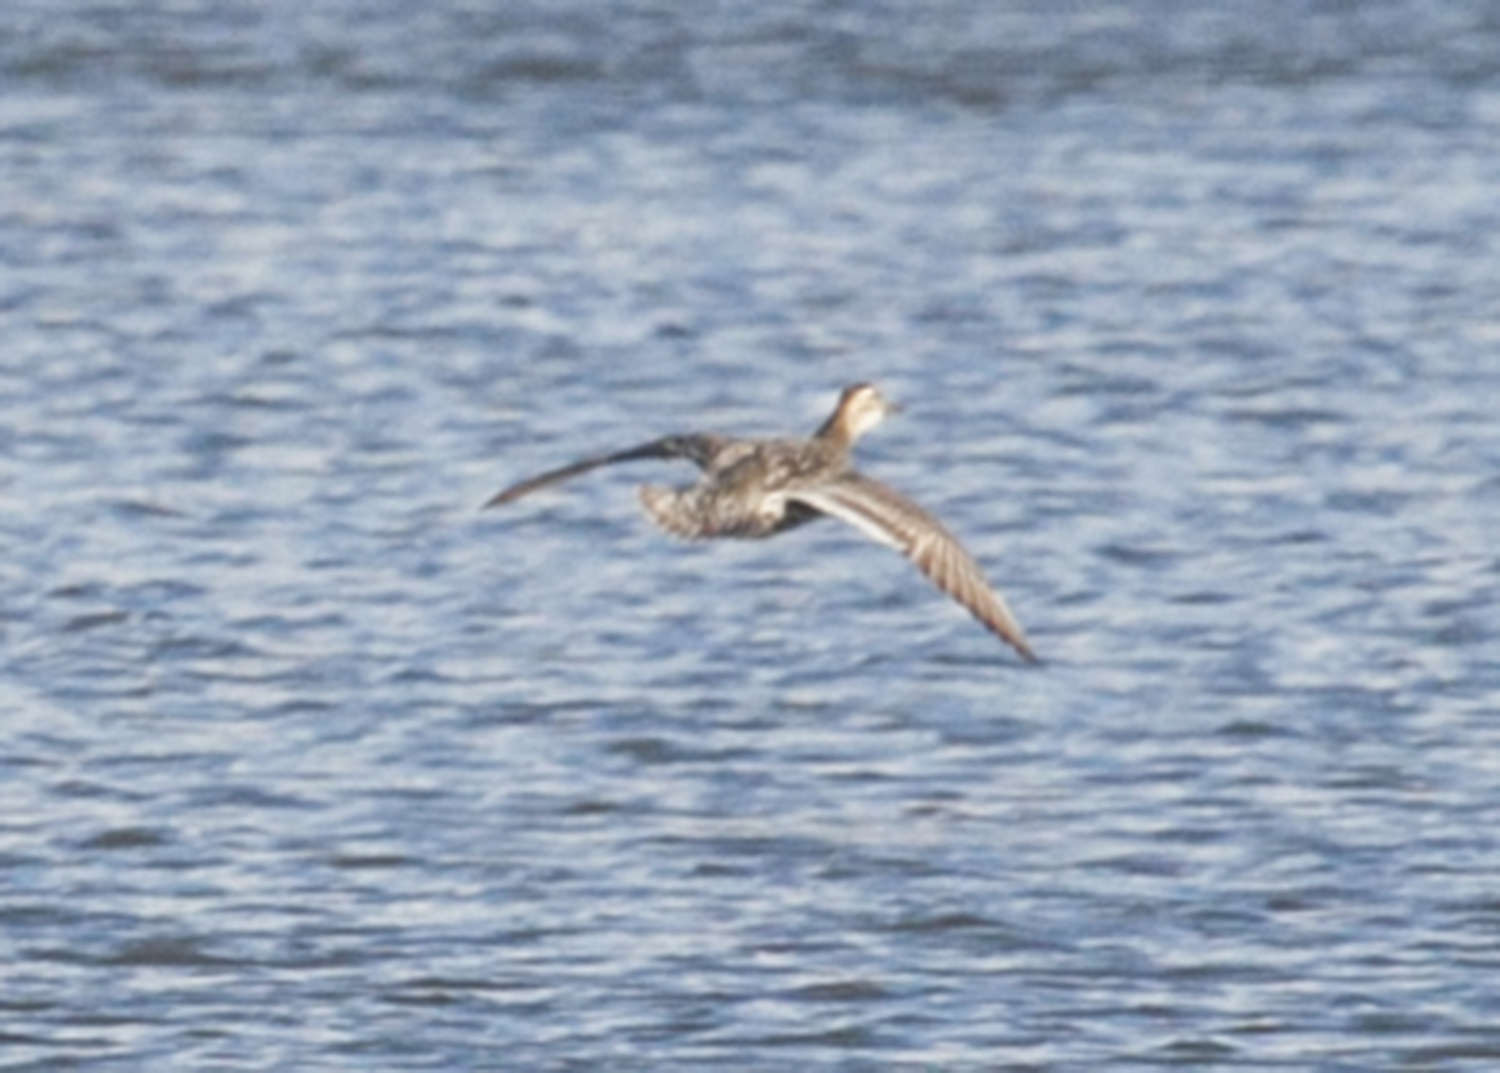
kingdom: Animalia
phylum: Chordata
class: Aves
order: Anseriformes
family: Anatidae
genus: Spatula
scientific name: Spatula querquedula
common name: Garganey
